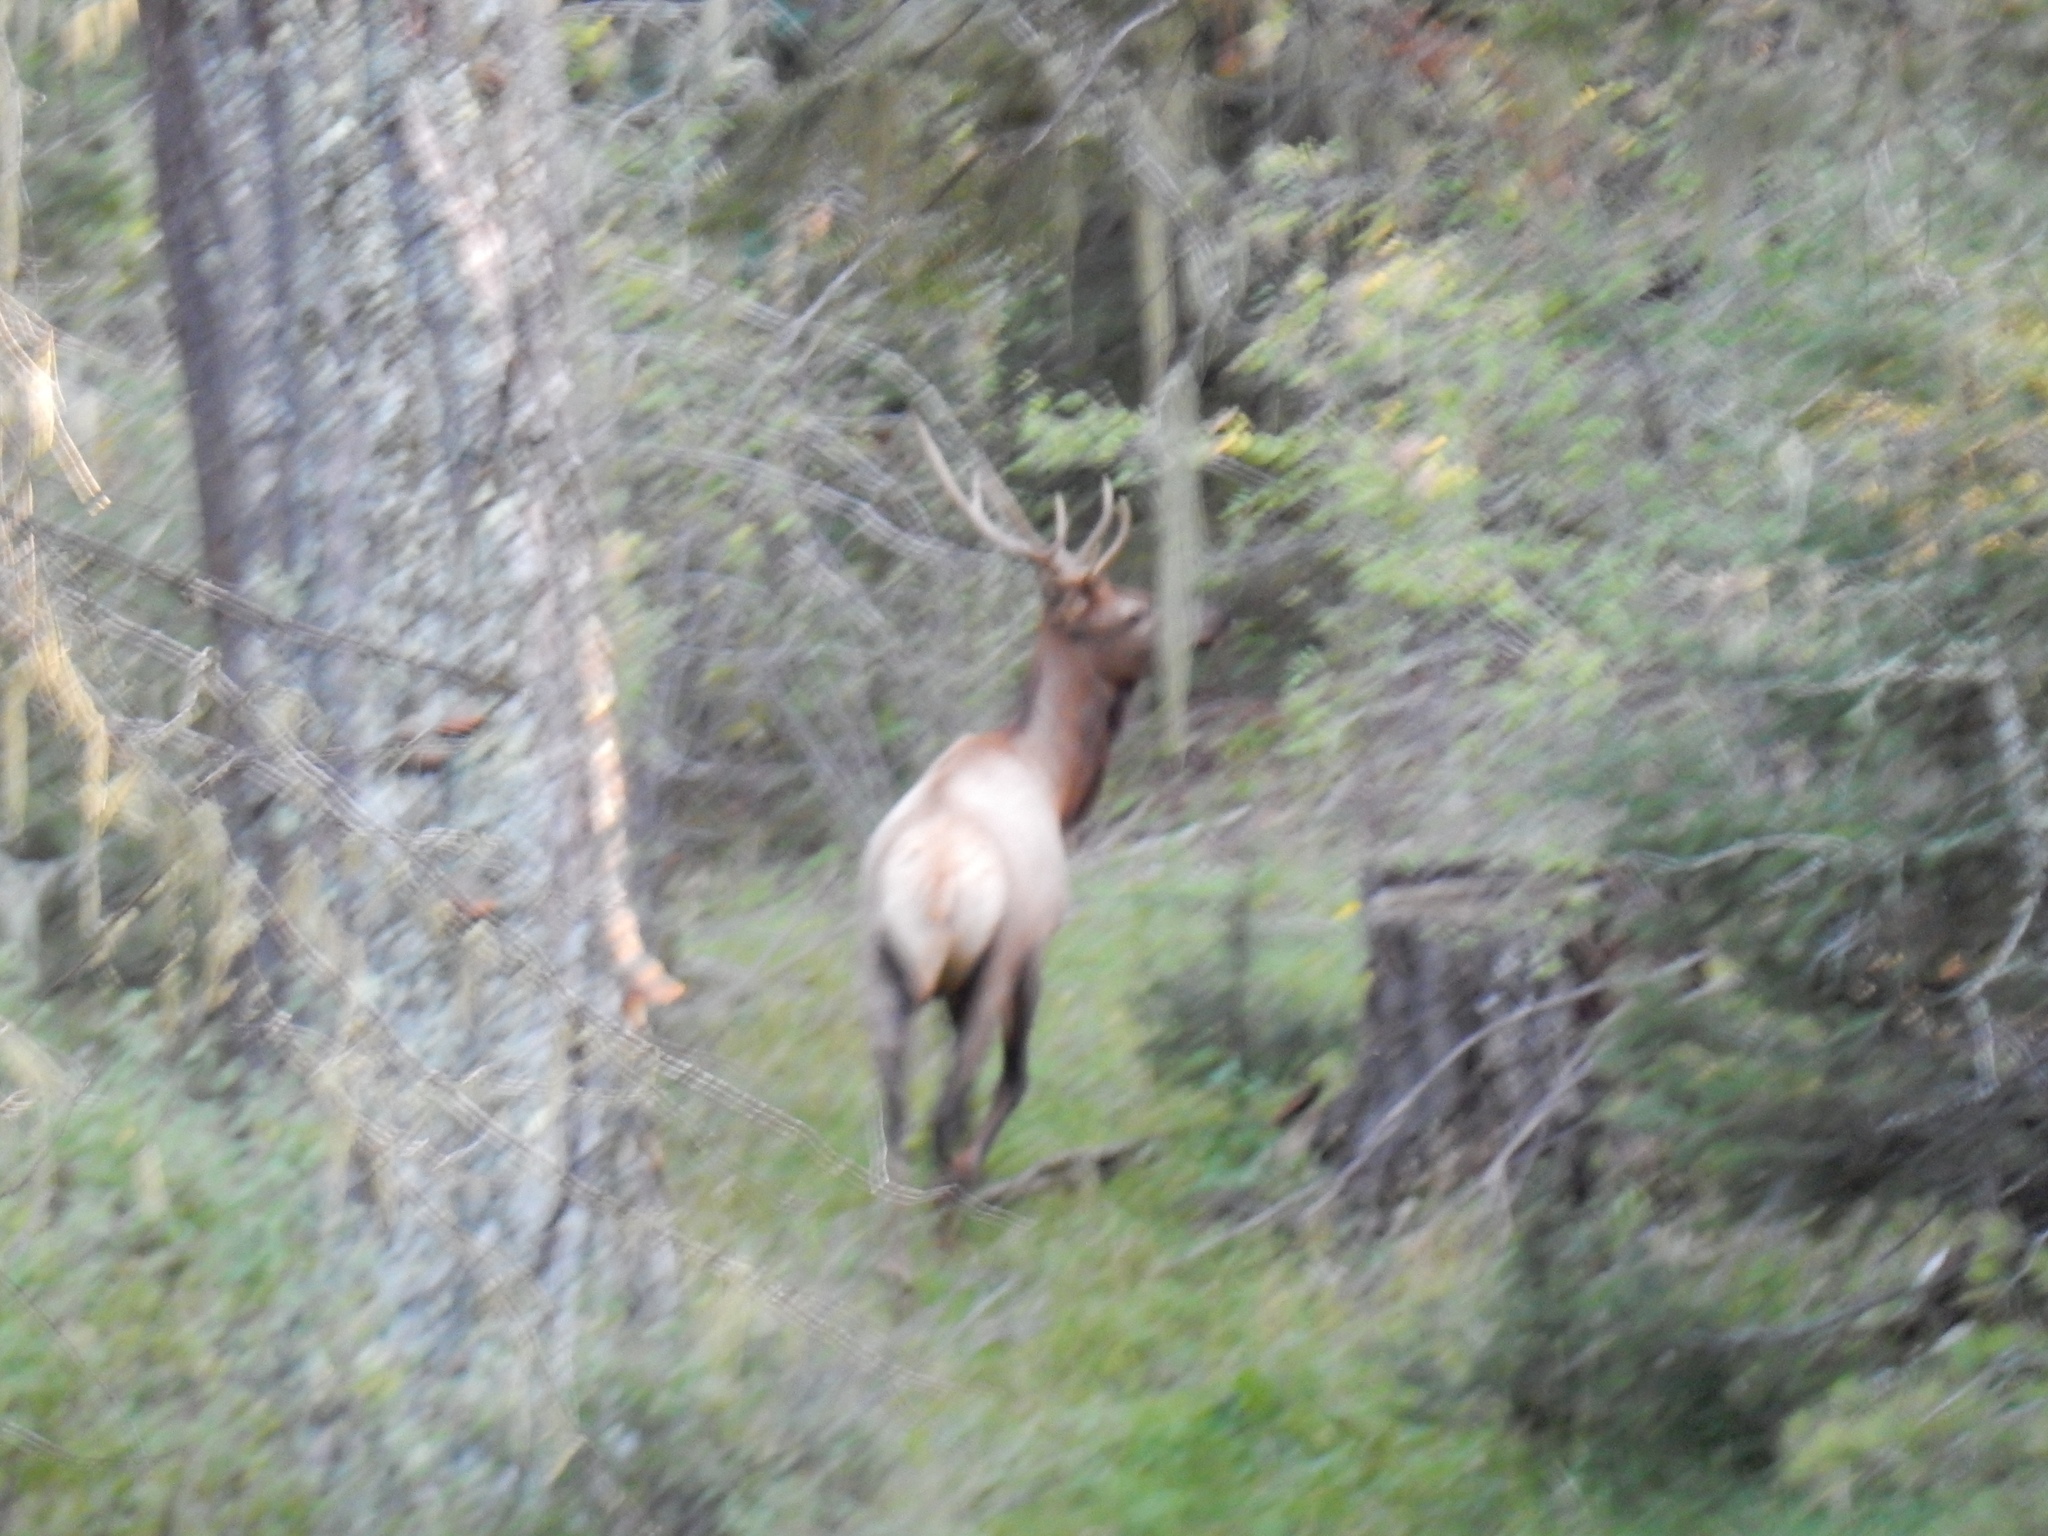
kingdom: Animalia
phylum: Chordata
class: Mammalia
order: Artiodactyla
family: Cervidae
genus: Cervus
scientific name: Cervus elaphus
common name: Red deer
